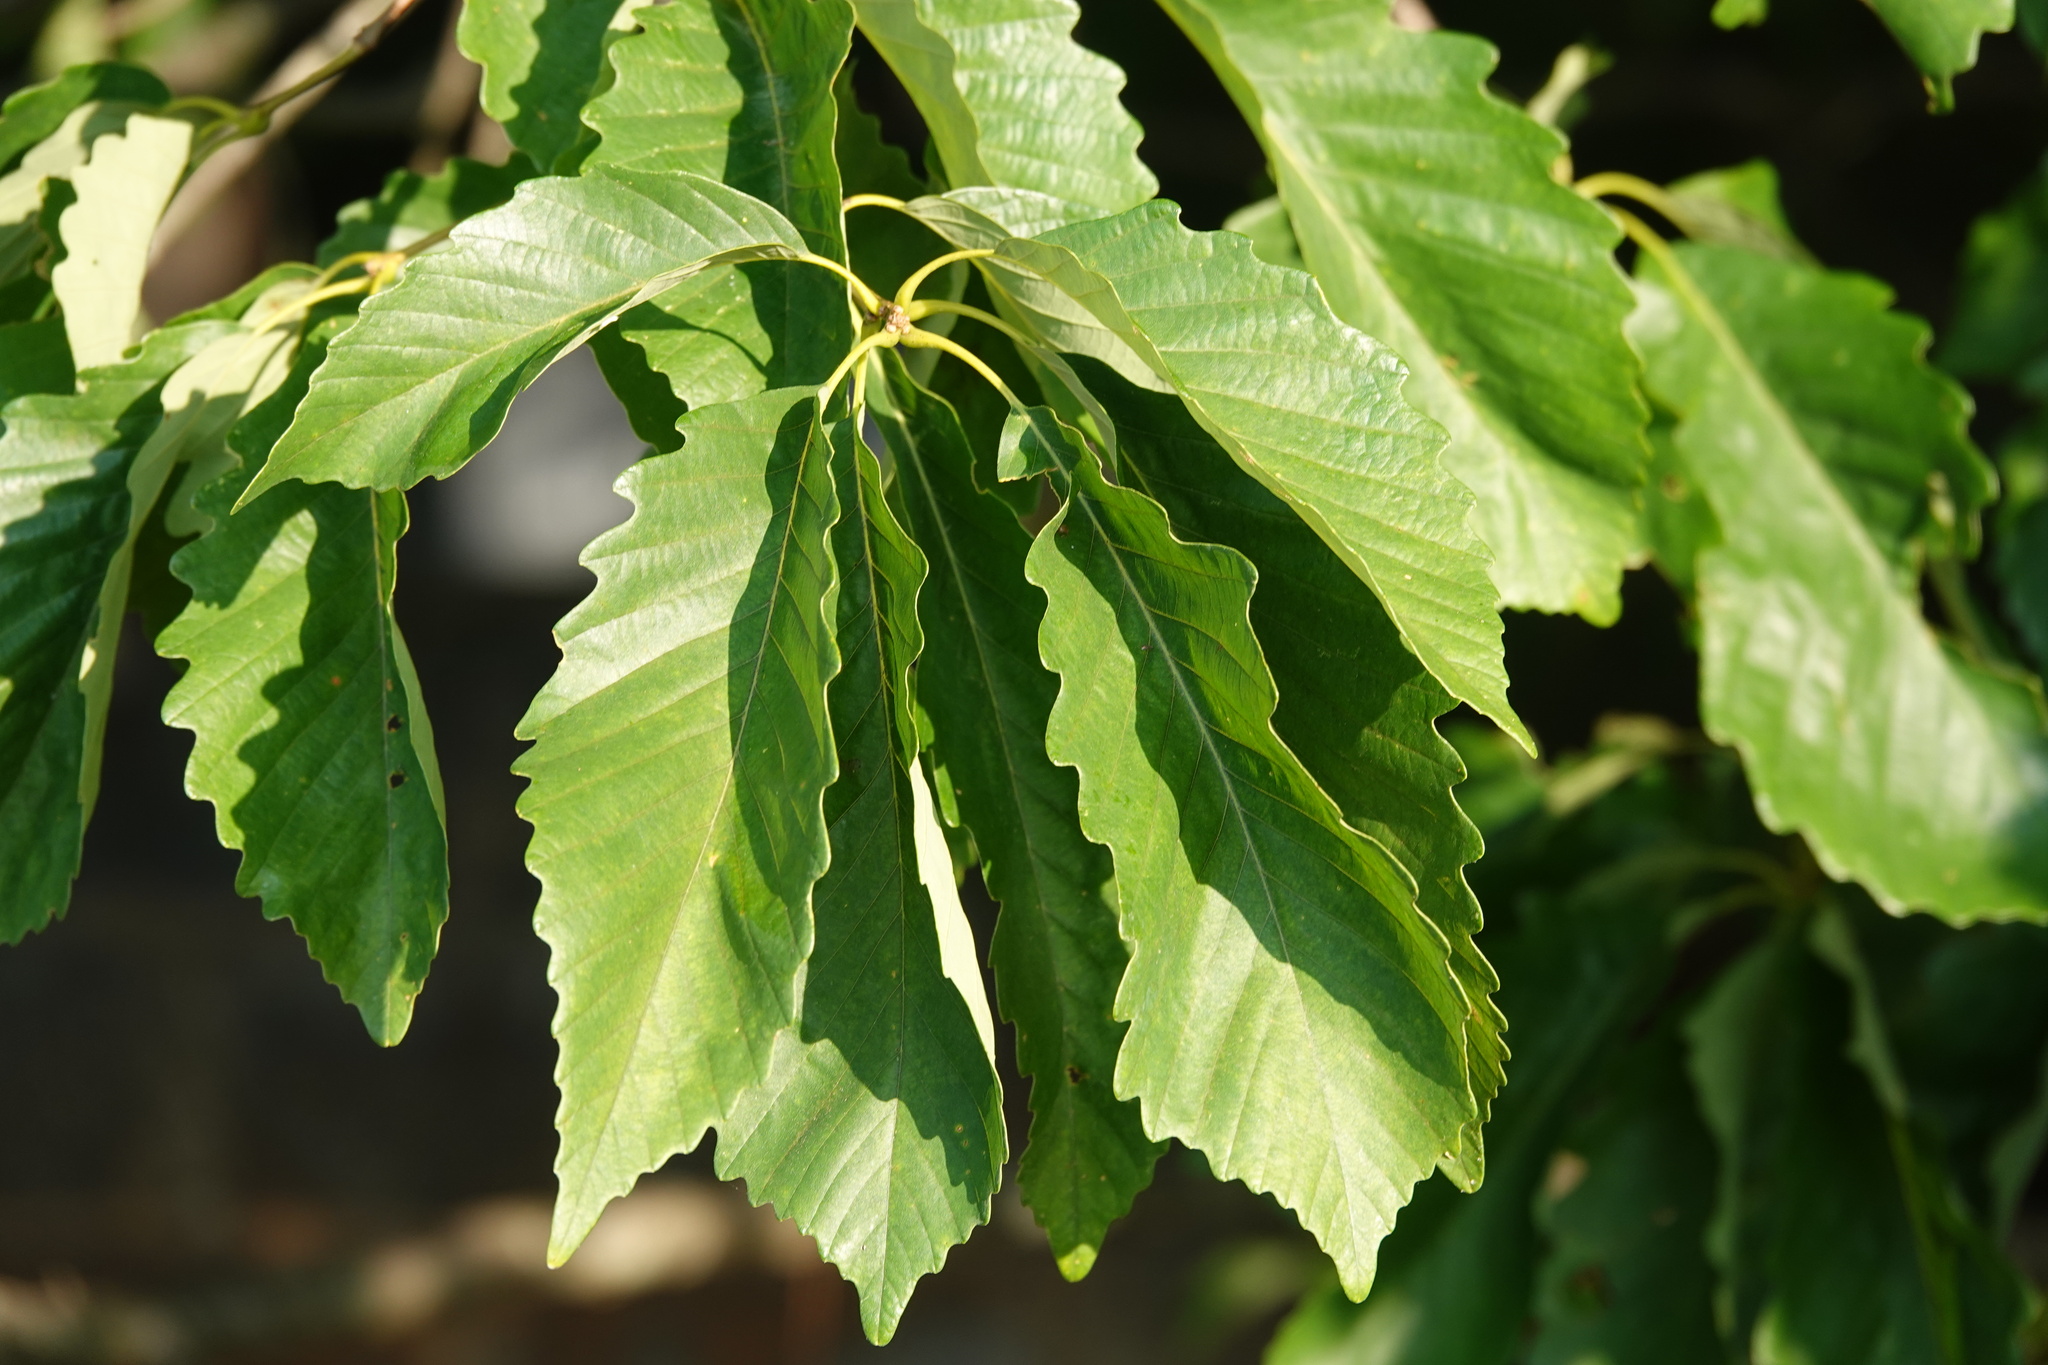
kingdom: Plantae
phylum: Tracheophyta
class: Magnoliopsida
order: Fagales
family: Fagaceae
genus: Quercus
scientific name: Quercus montana
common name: Chestnut oak
